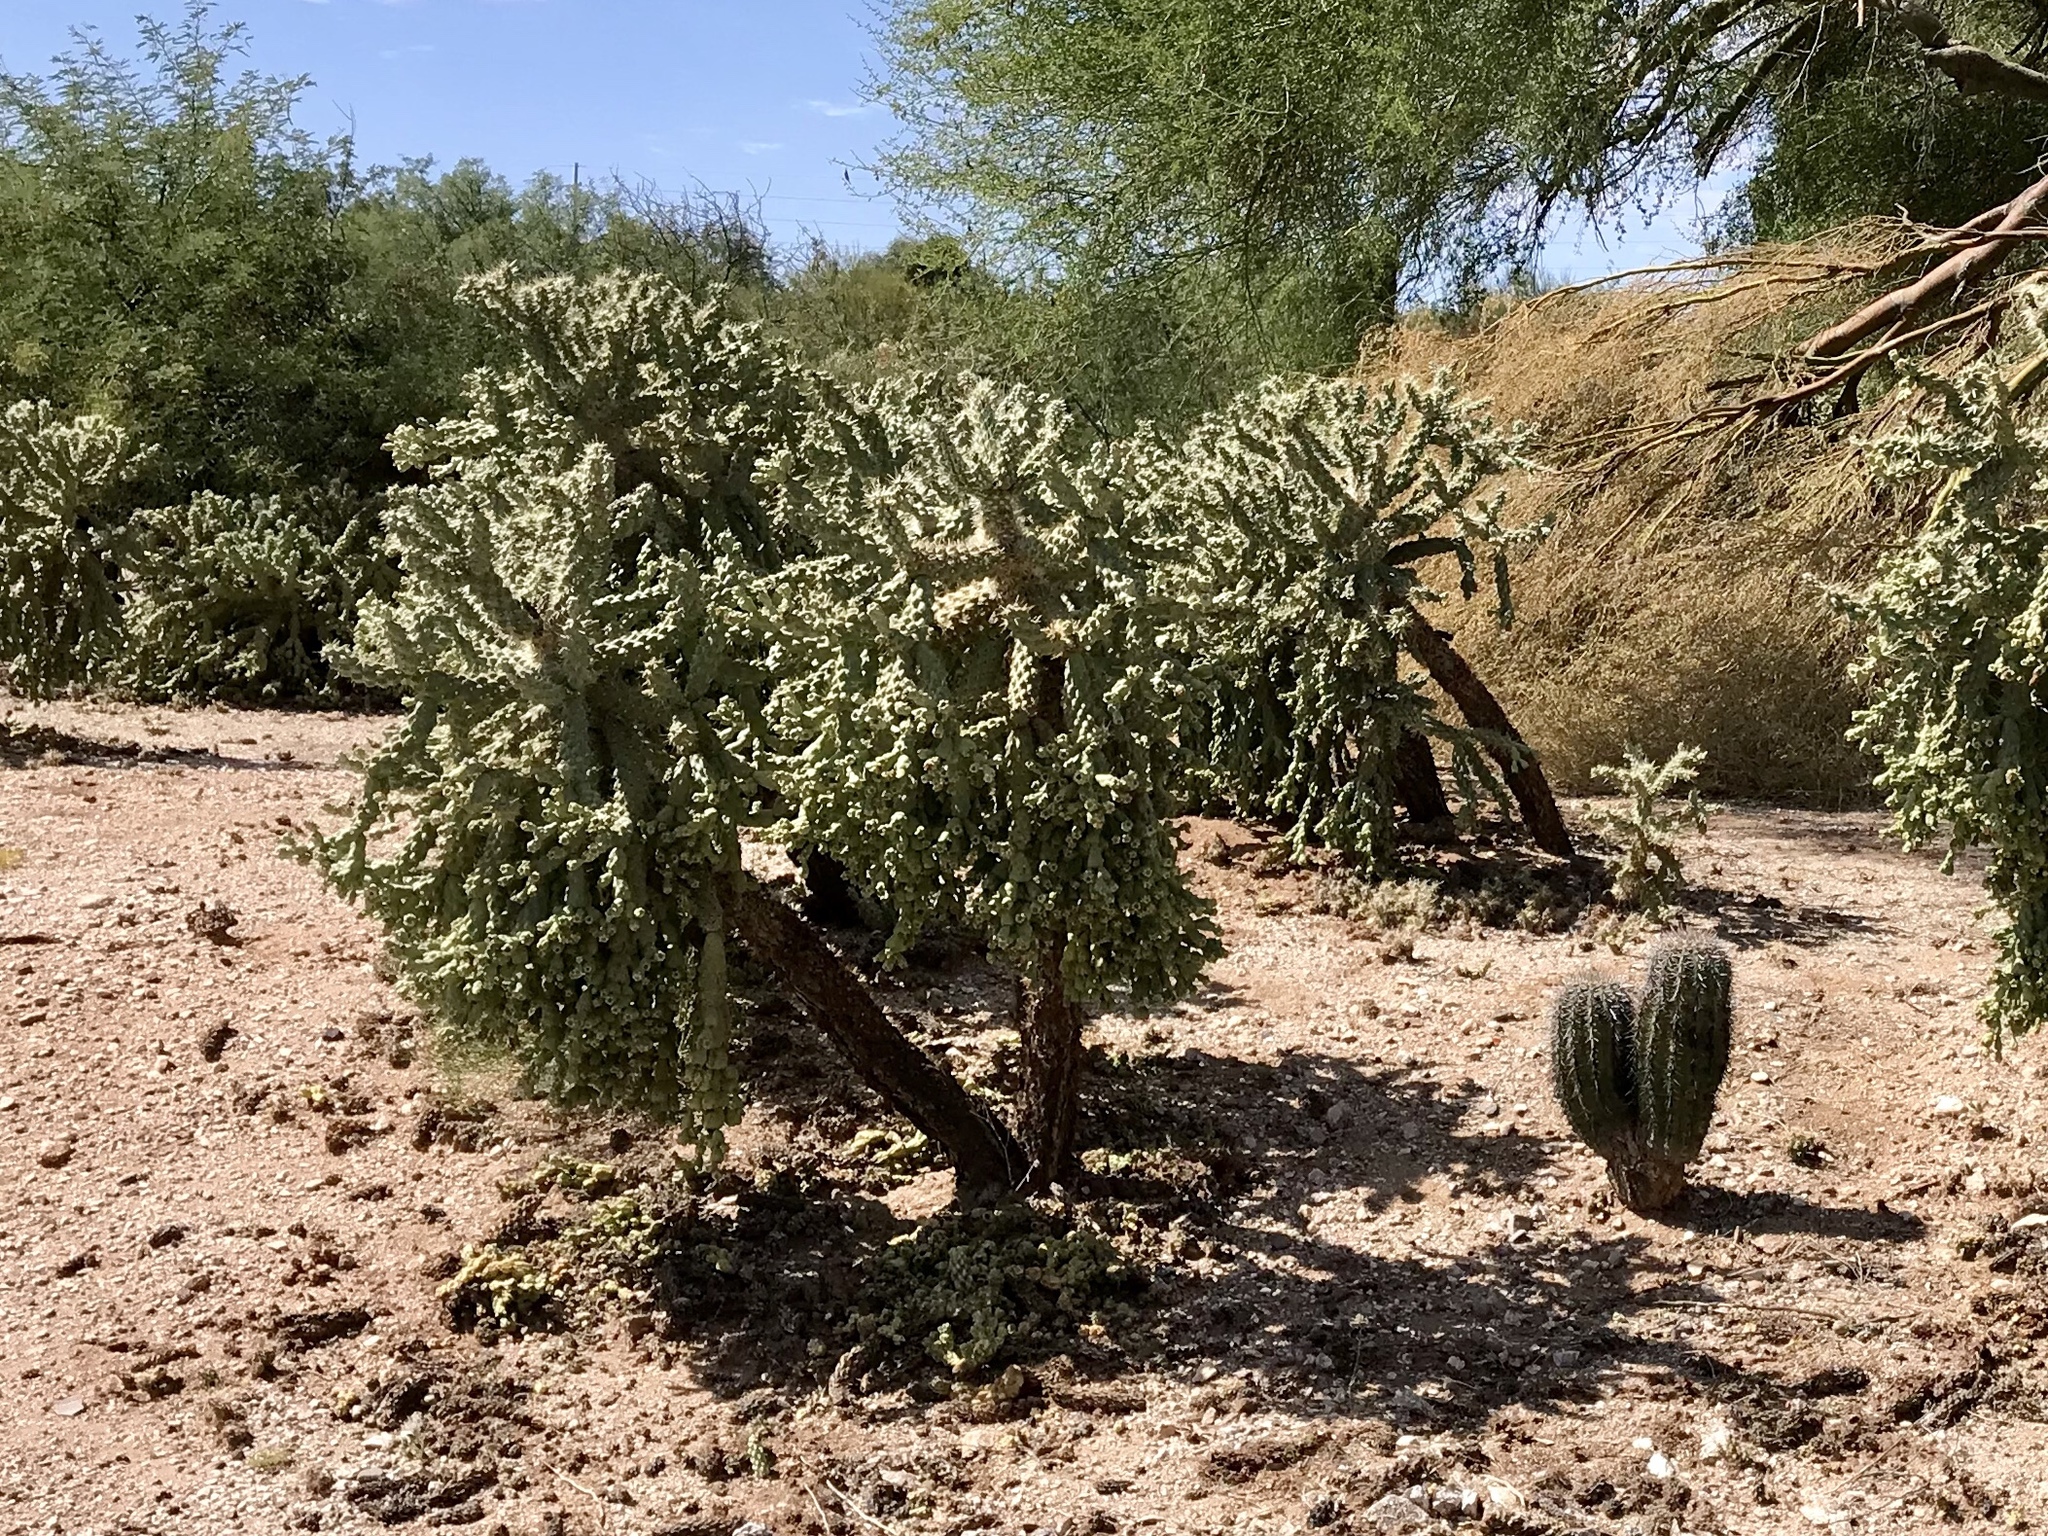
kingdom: Plantae
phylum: Tracheophyta
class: Magnoliopsida
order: Caryophyllales
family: Cactaceae
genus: Cylindropuntia
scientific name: Cylindropuntia fulgida
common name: Jumping cholla
